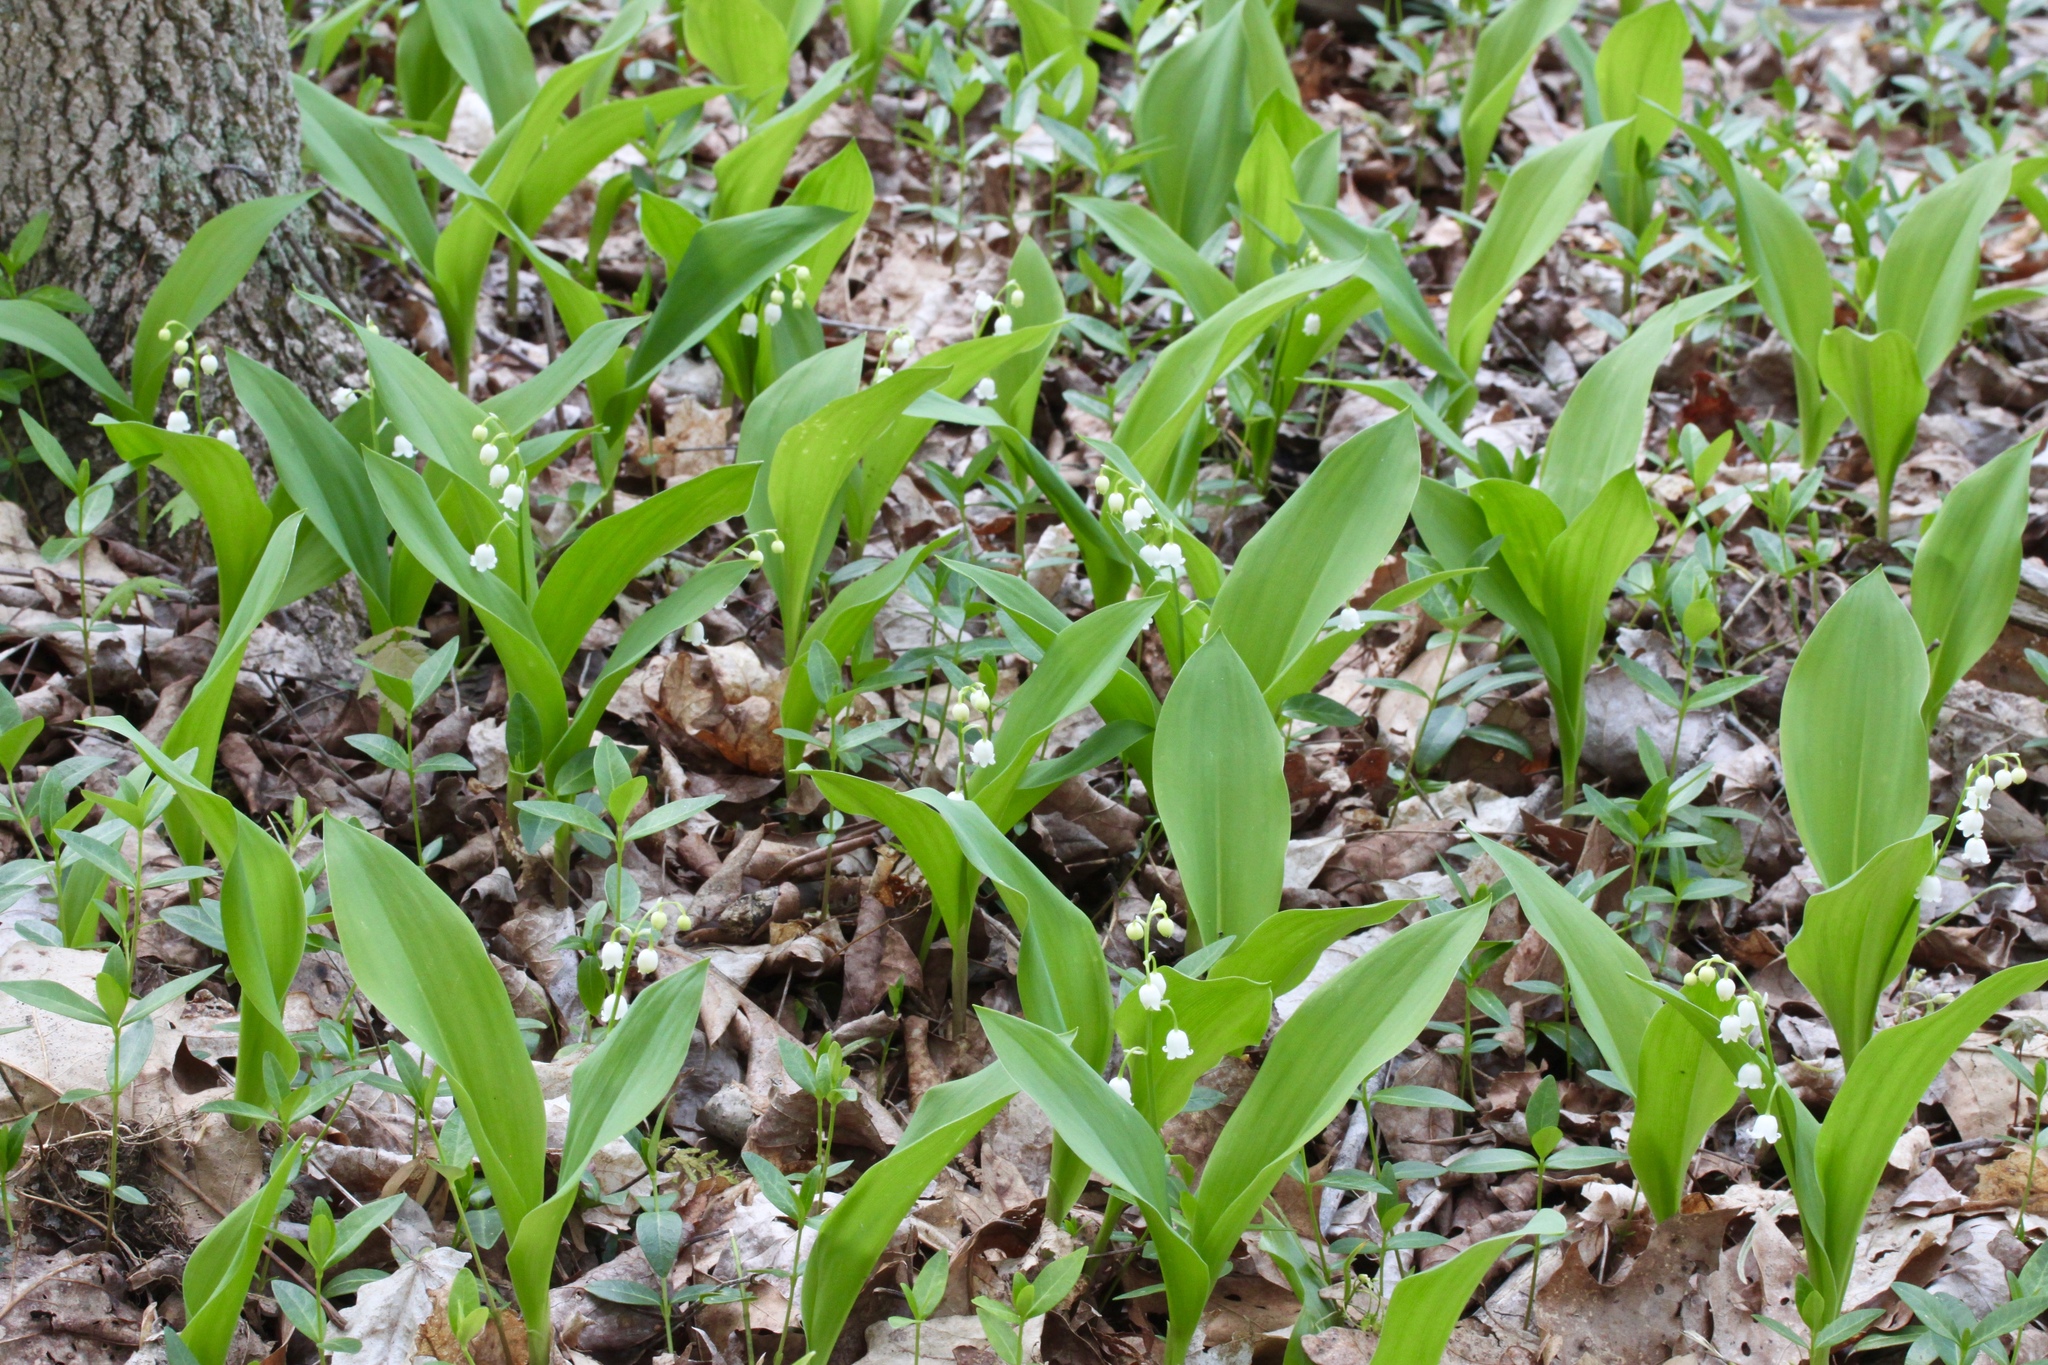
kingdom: Plantae
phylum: Tracheophyta
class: Liliopsida
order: Asparagales
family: Asparagaceae
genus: Convallaria
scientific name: Convallaria majalis
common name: Lily-of-the-valley
